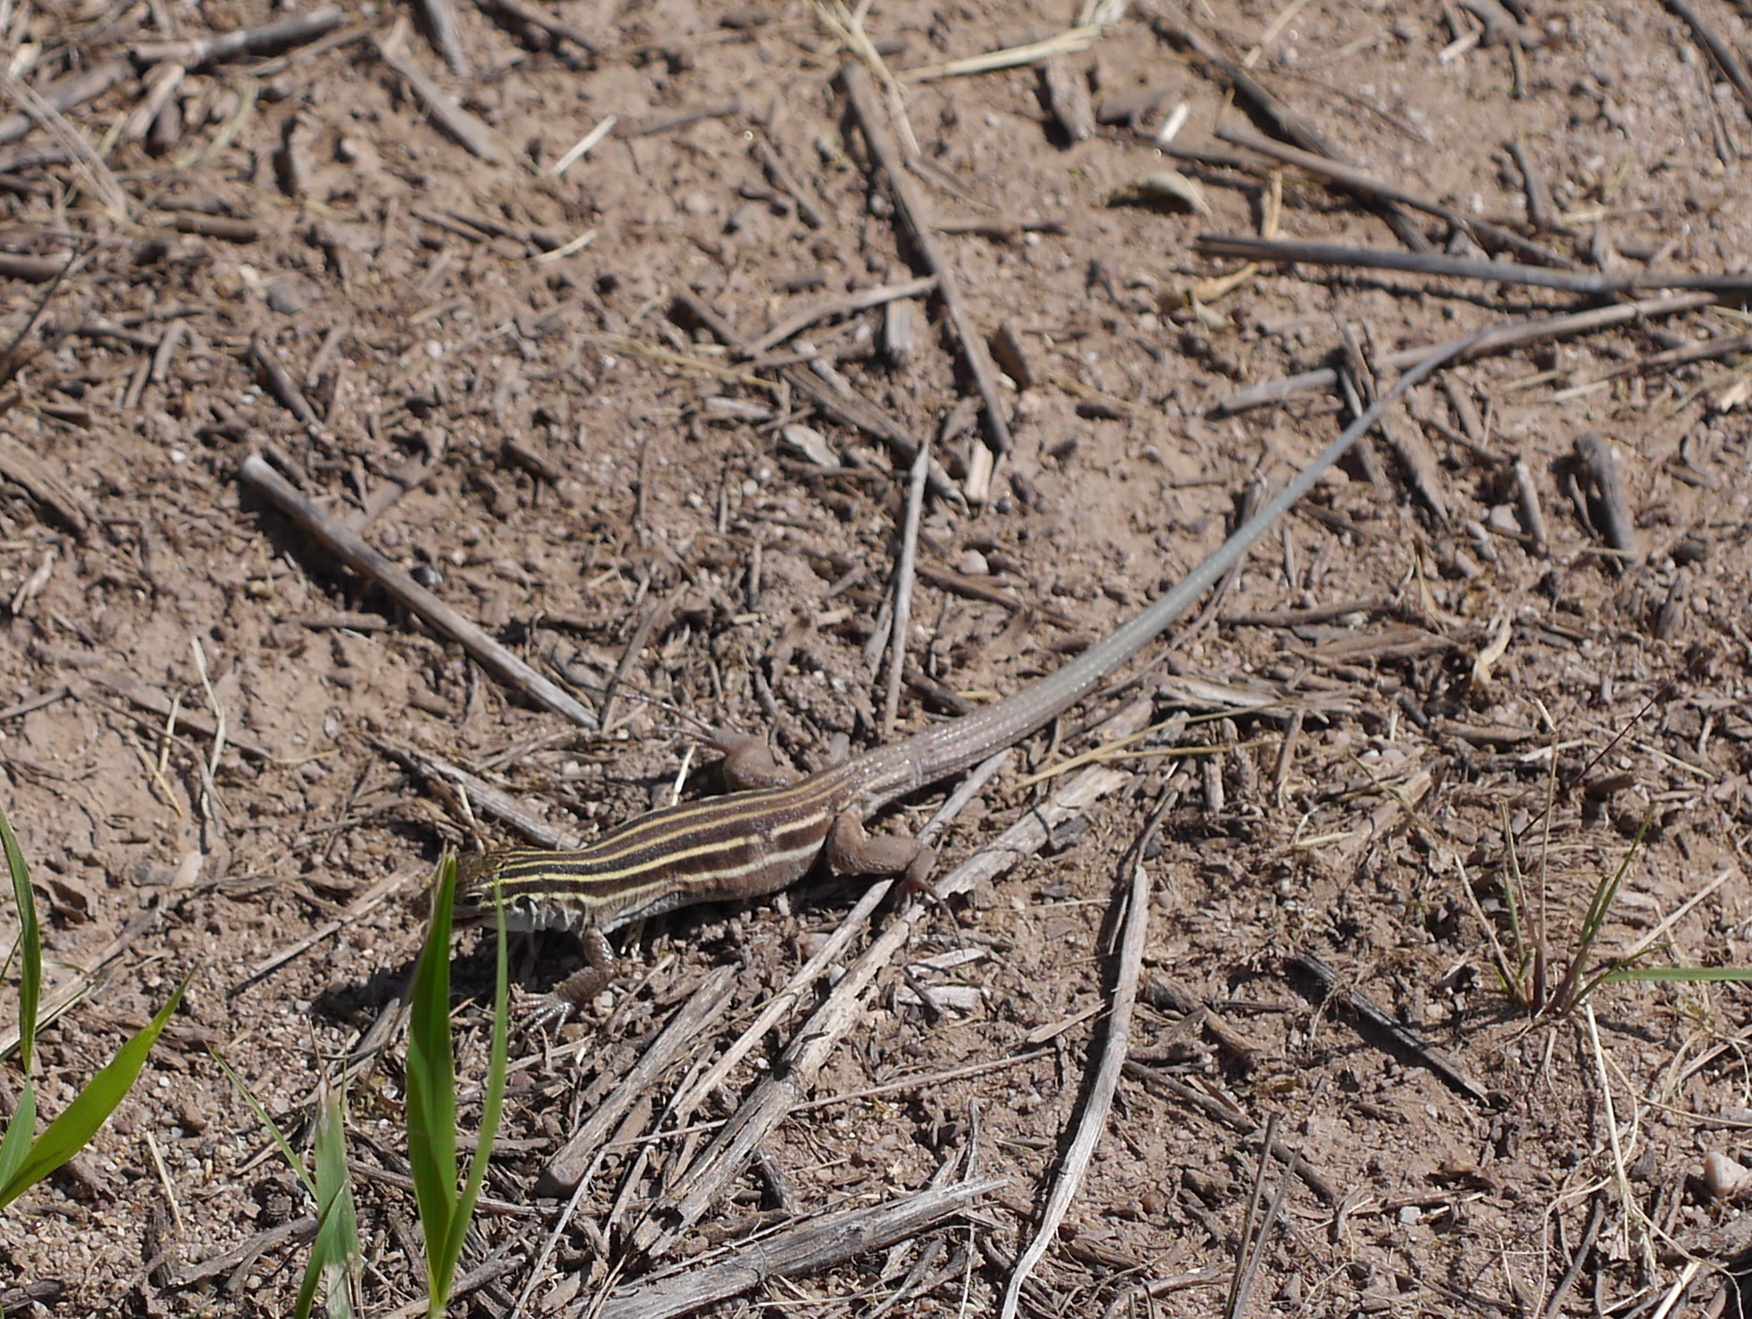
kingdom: Animalia
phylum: Chordata
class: Squamata
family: Teiidae
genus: Aspidoscelis
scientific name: Aspidoscelis uniparens
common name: Desert grassland whiptail
